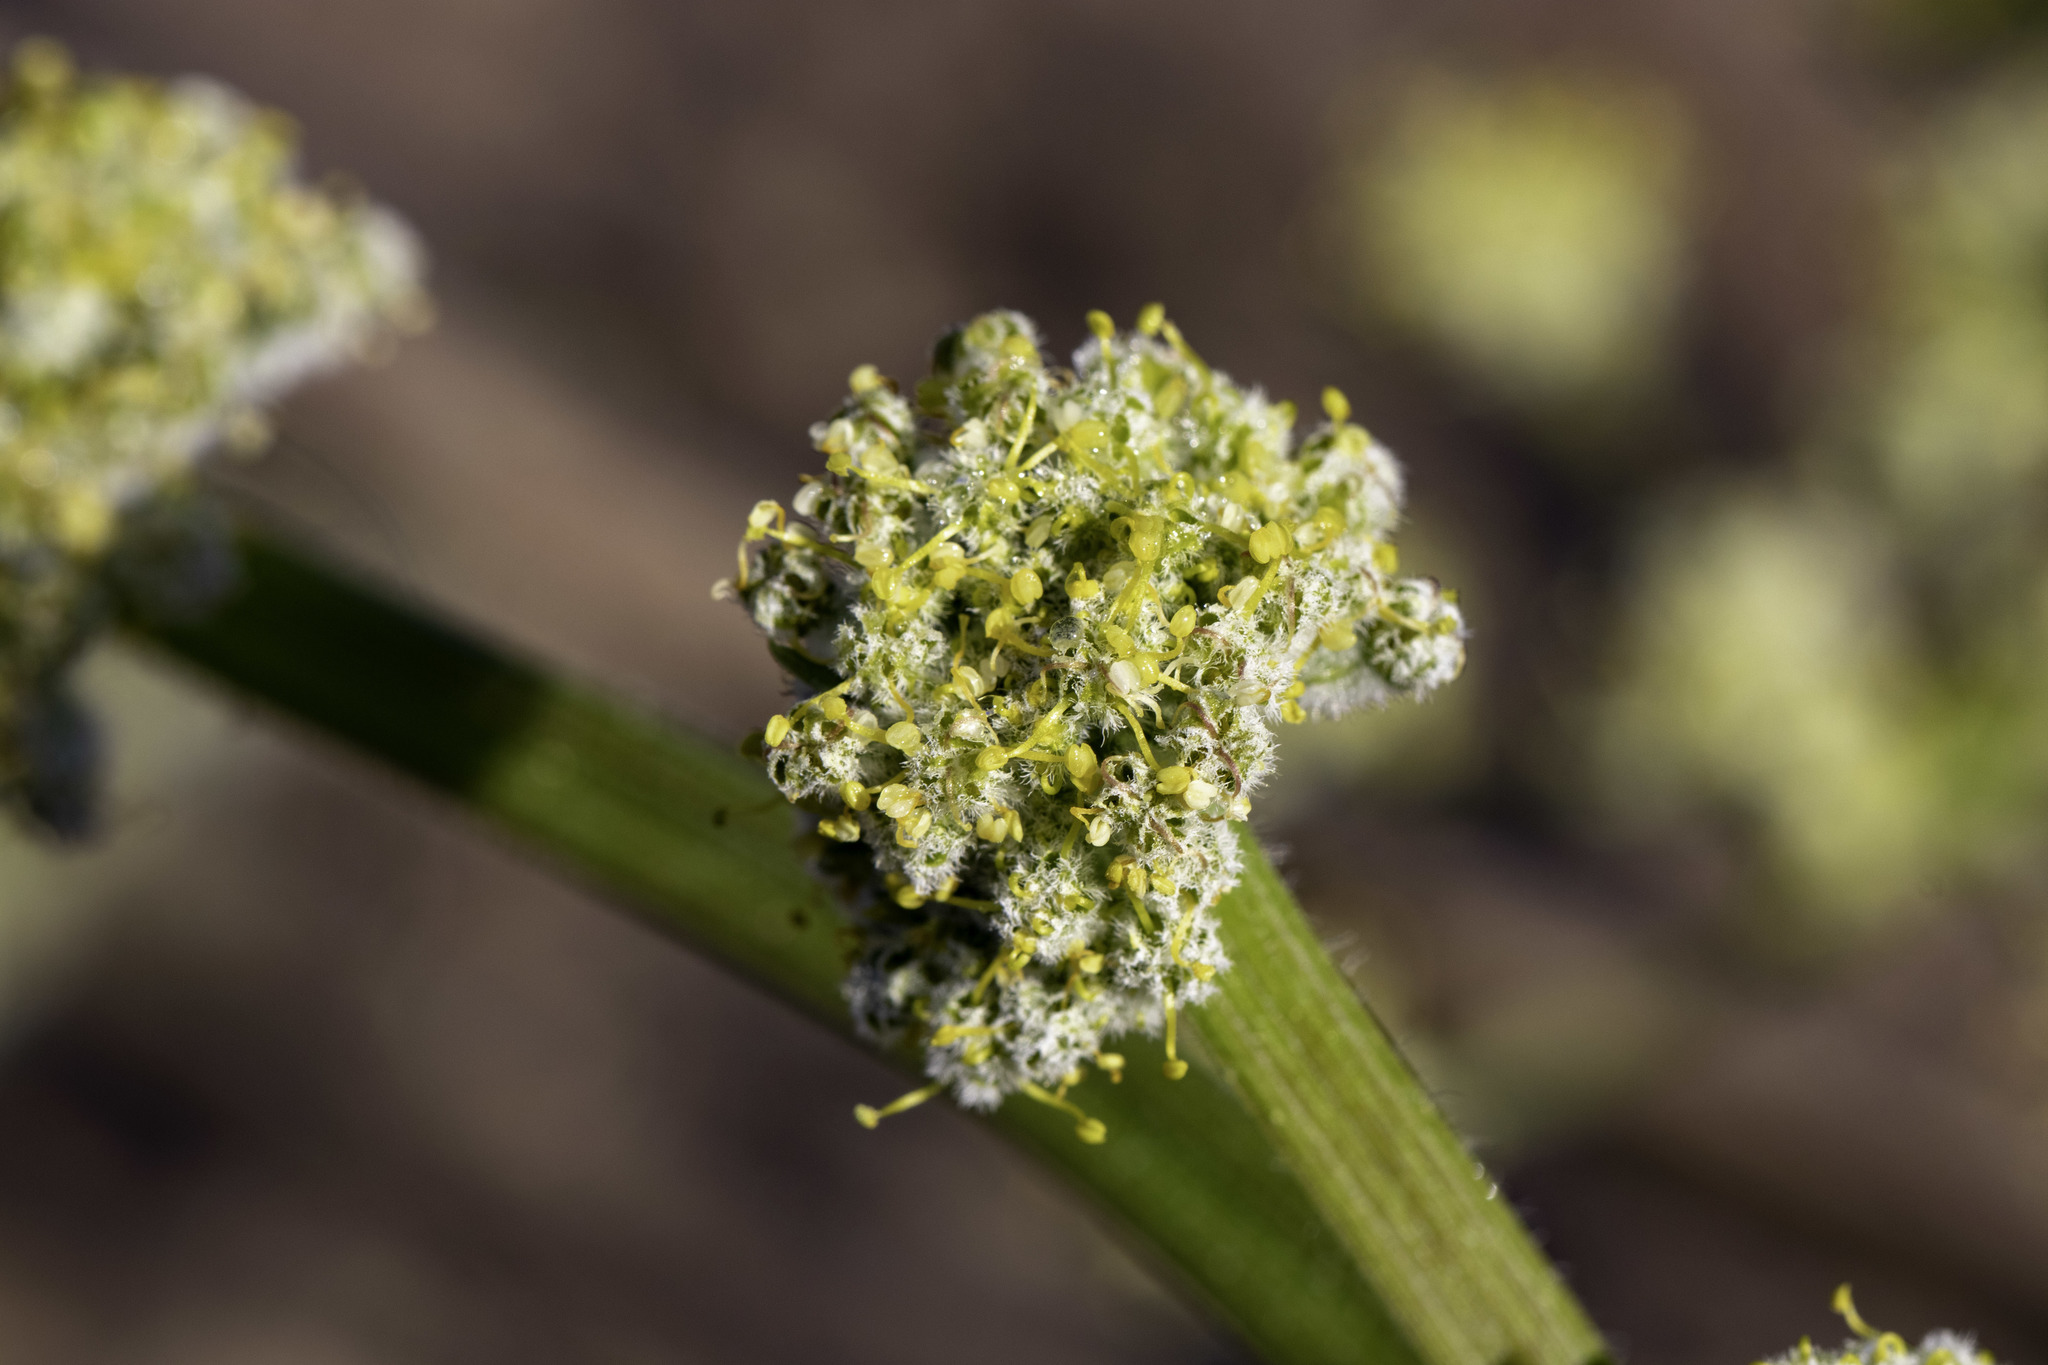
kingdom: Plantae
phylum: Tracheophyta
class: Magnoliopsida
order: Apiales
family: Apiaceae
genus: Lomatium
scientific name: Lomatium dasycarpum
